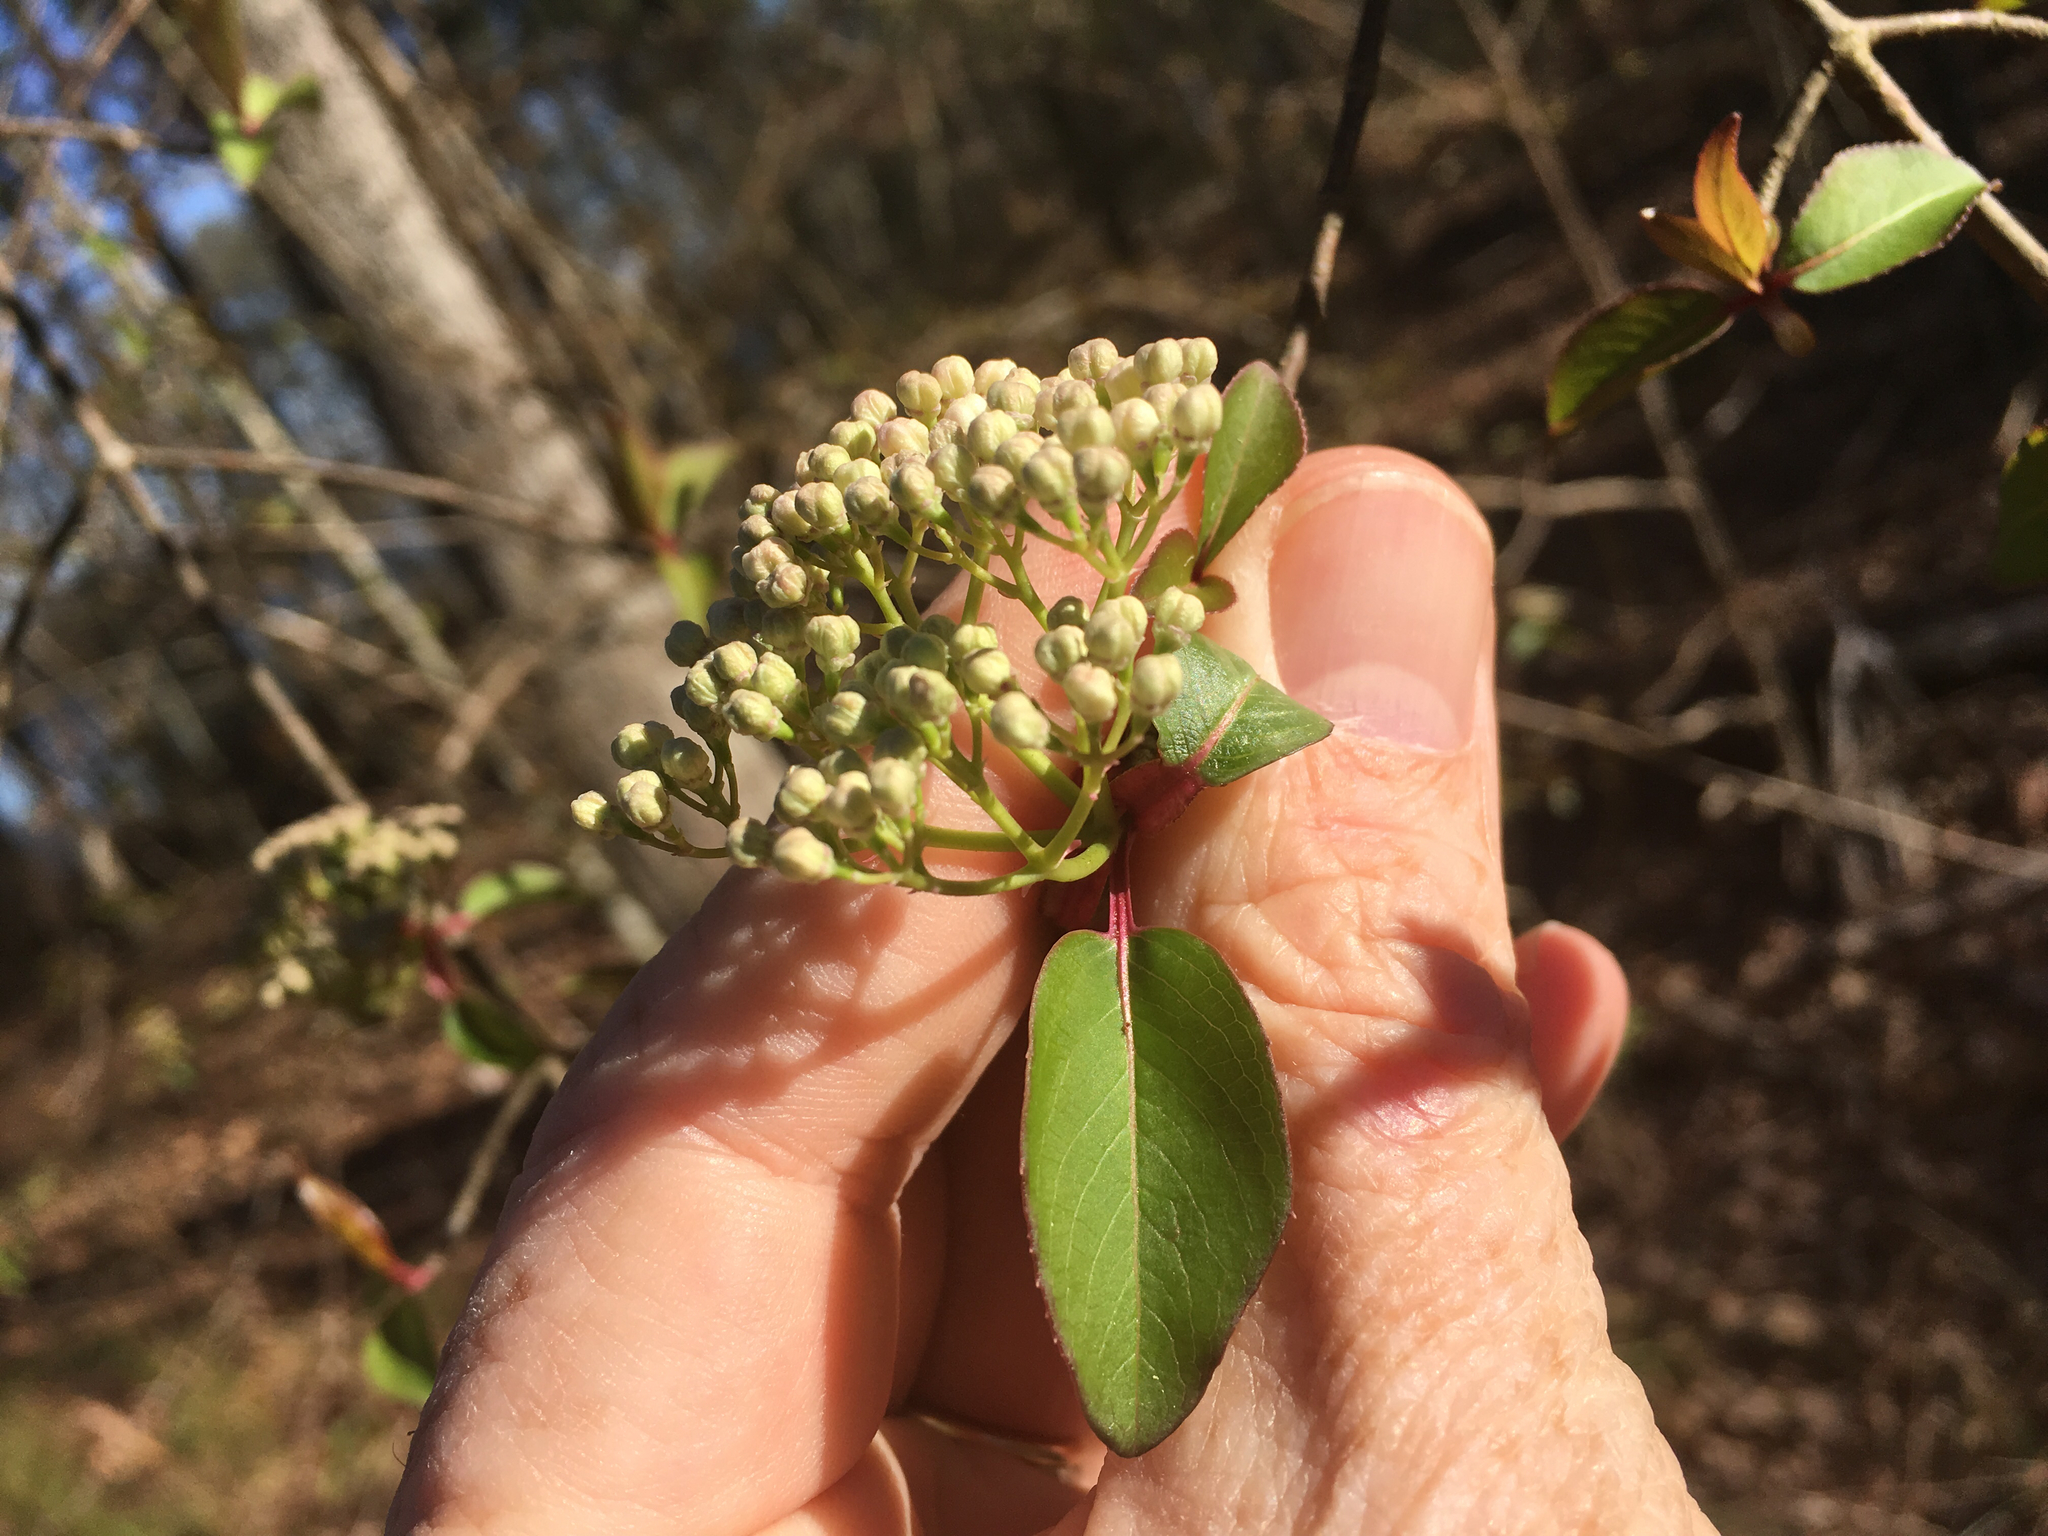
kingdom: Plantae
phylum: Tracheophyta
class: Magnoliopsida
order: Dipsacales
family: Viburnaceae
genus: Viburnum
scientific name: Viburnum prunifolium
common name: Black haw
